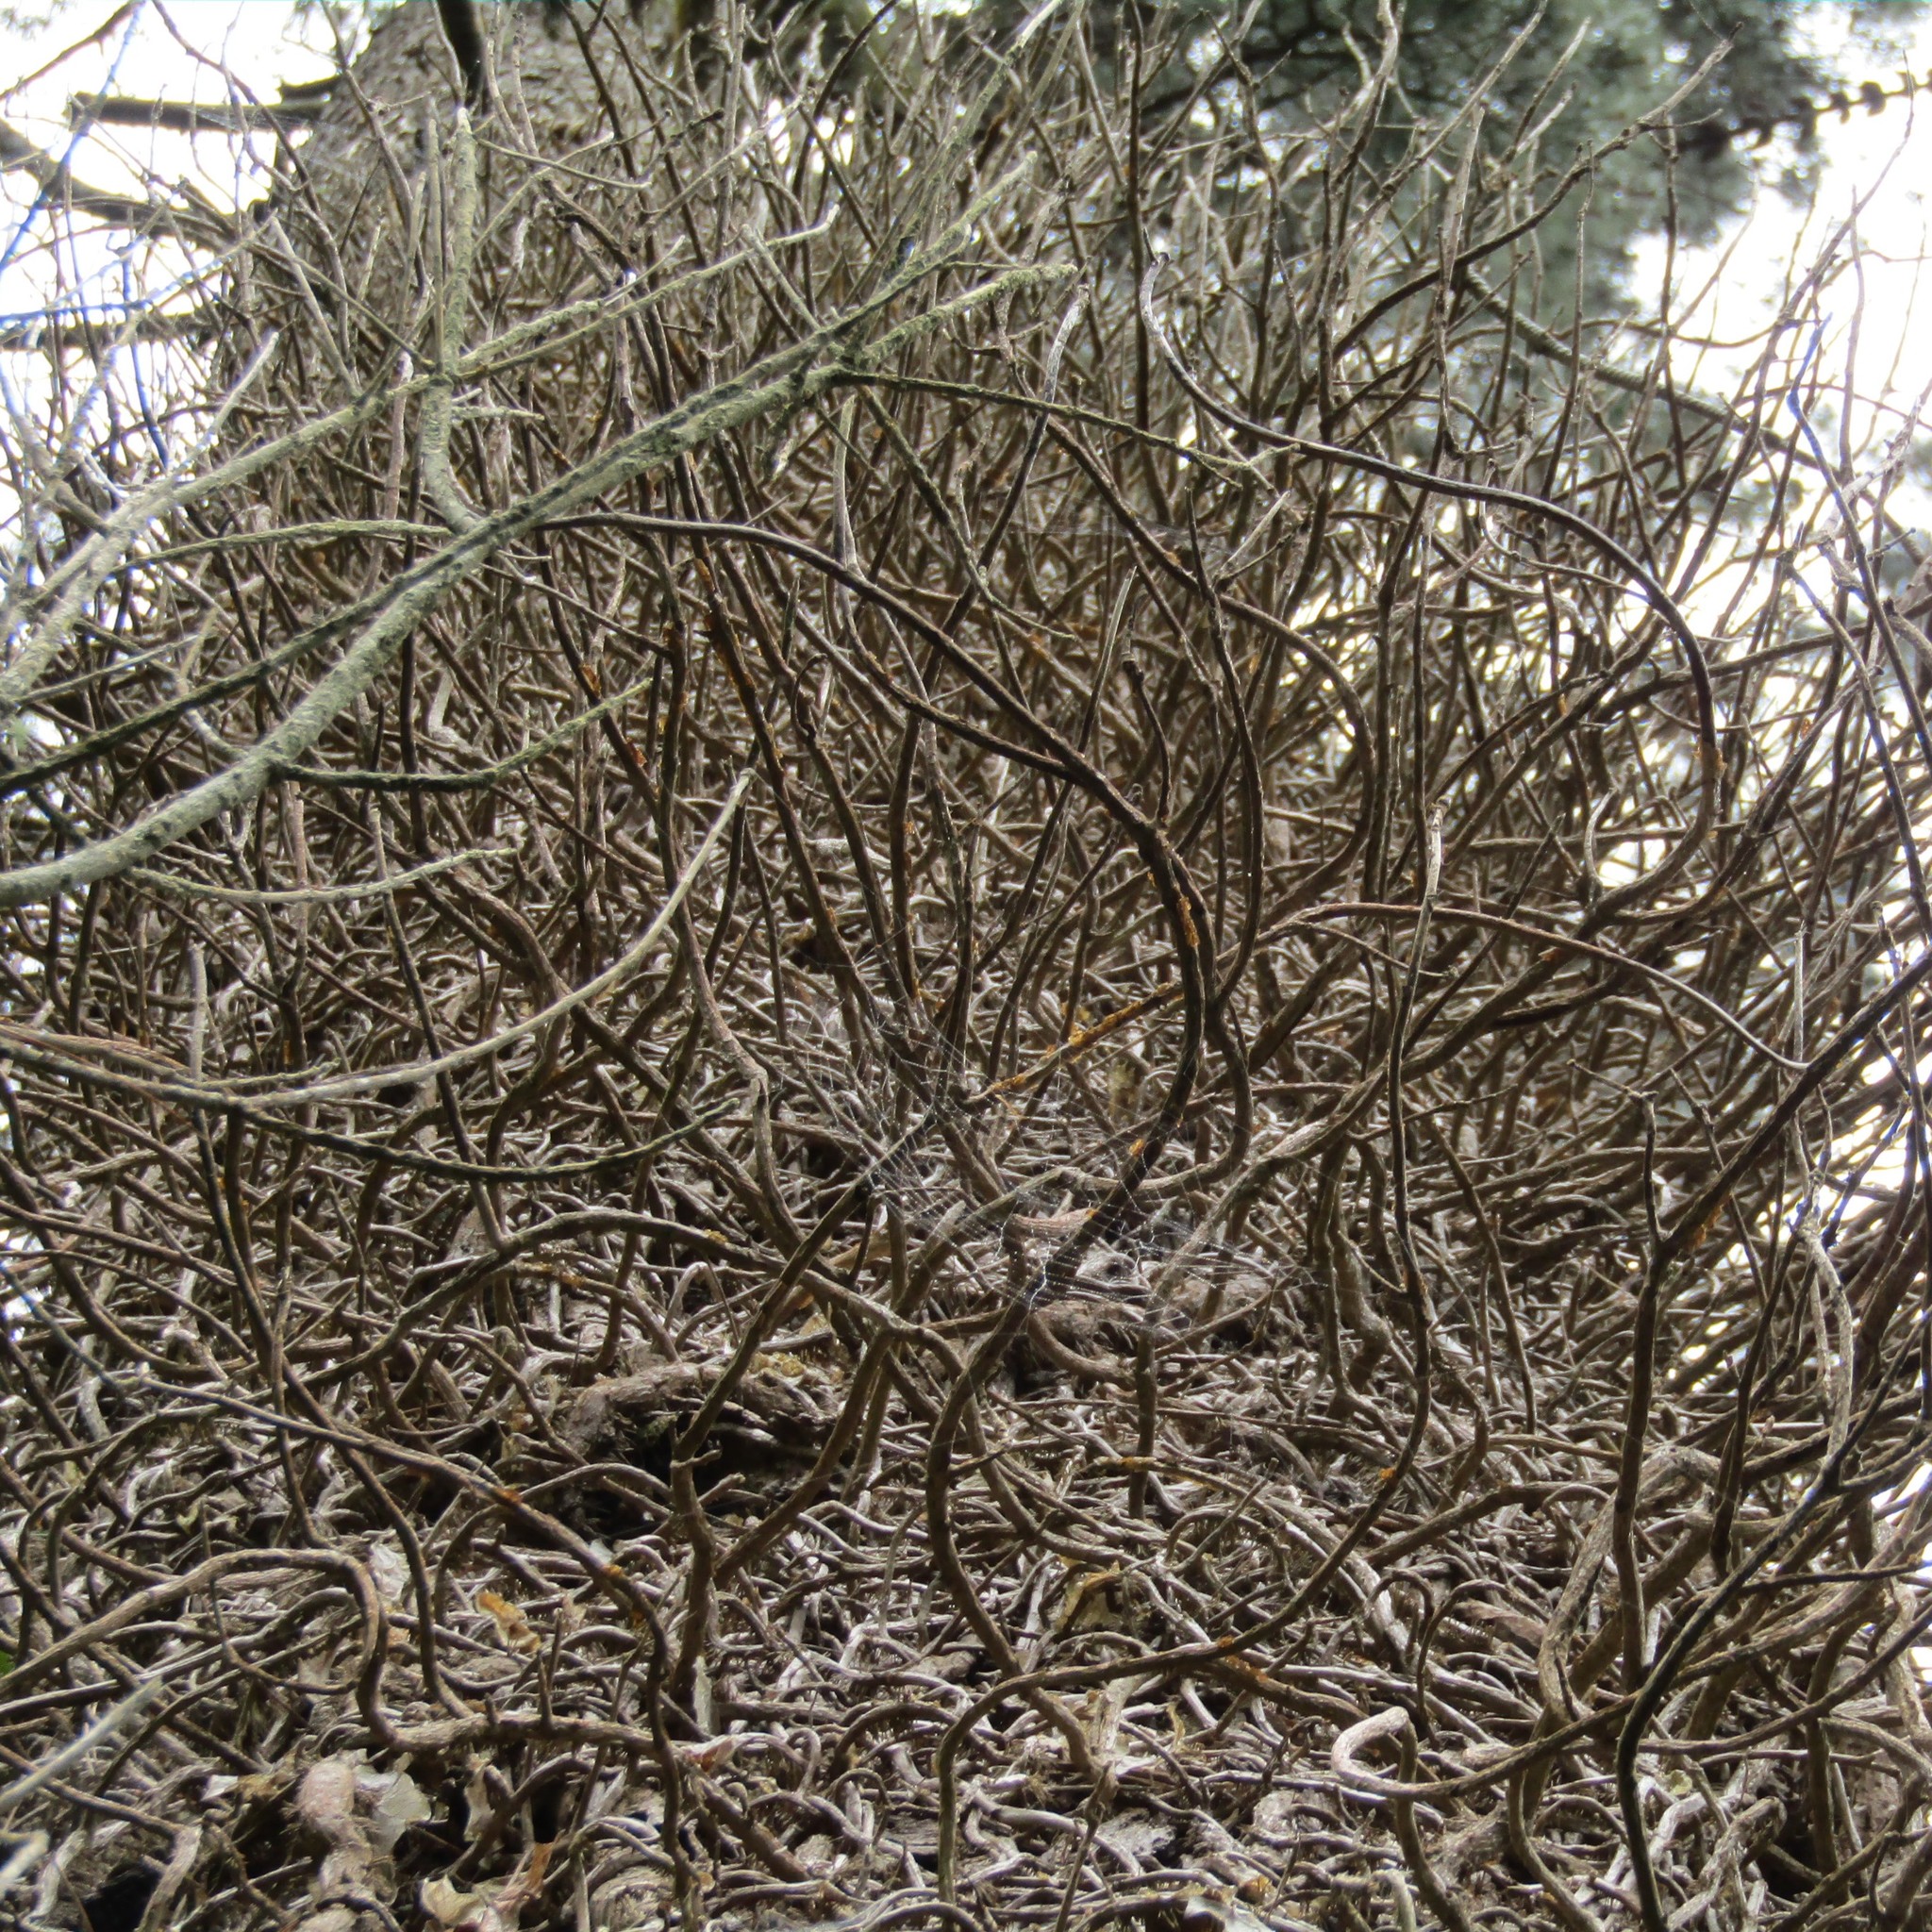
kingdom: Plantae
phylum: Tracheophyta
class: Magnoliopsida
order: Apiales
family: Araliaceae
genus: Hedera
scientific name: Hedera helix
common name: Ivy
